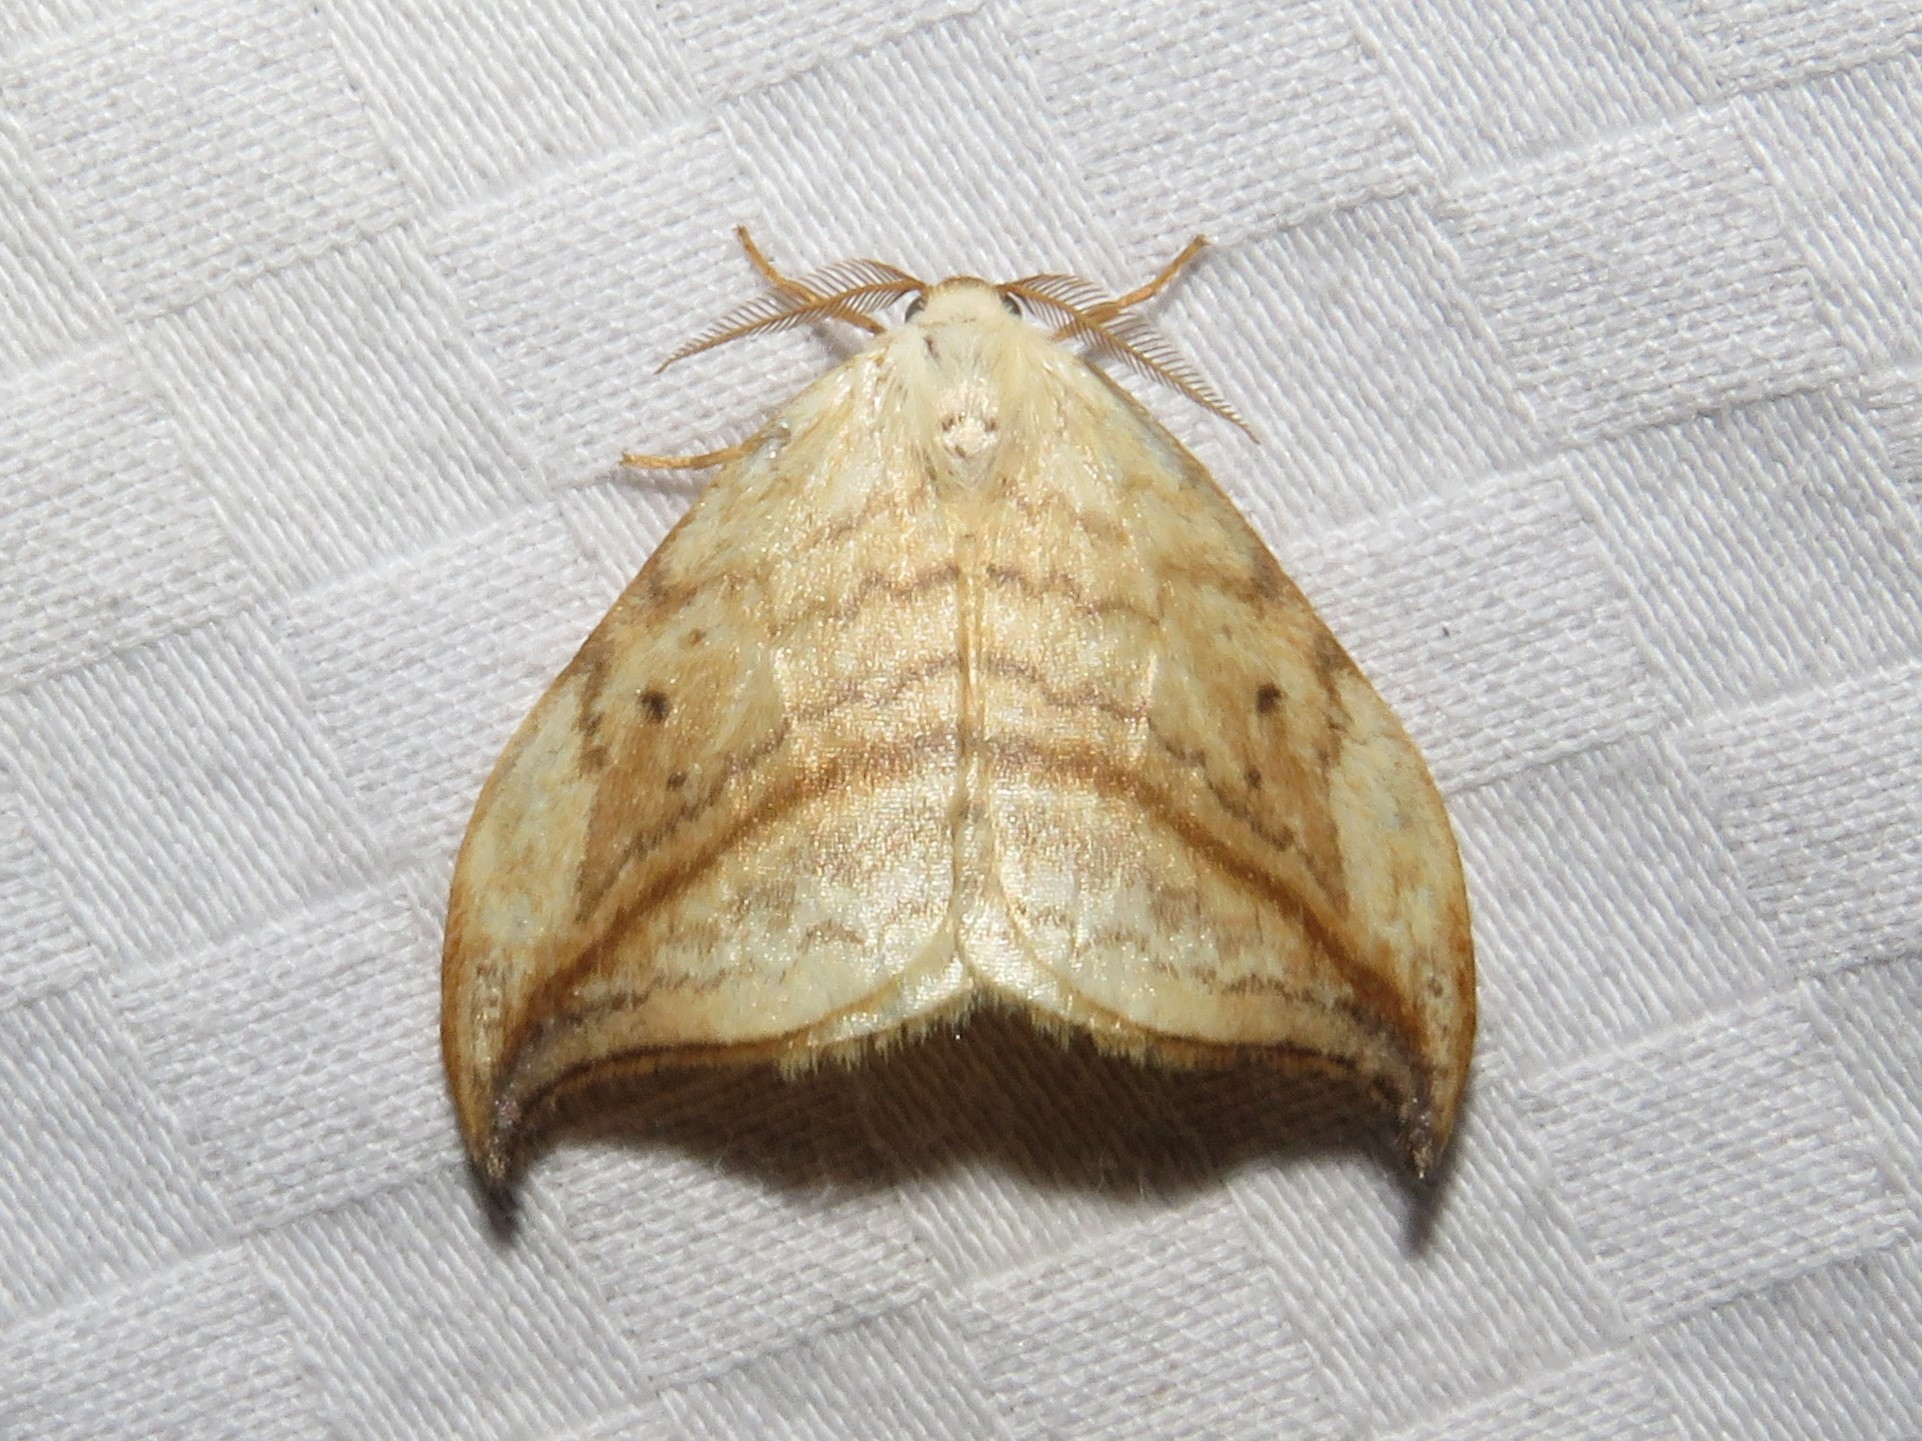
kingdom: Animalia
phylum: Arthropoda
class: Insecta
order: Lepidoptera
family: Drepanidae
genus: Drepana
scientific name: Drepana arcuata
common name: Arched hooktip moth
